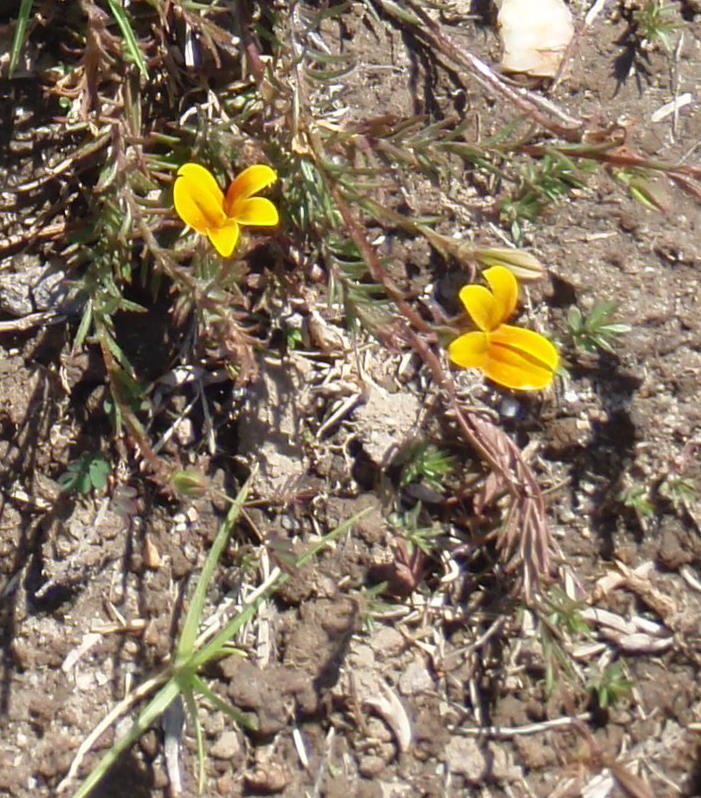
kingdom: Plantae
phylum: Tracheophyta
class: Magnoliopsida
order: Asterales
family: Campanulaceae
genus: Monopsis
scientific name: Monopsis lutea
